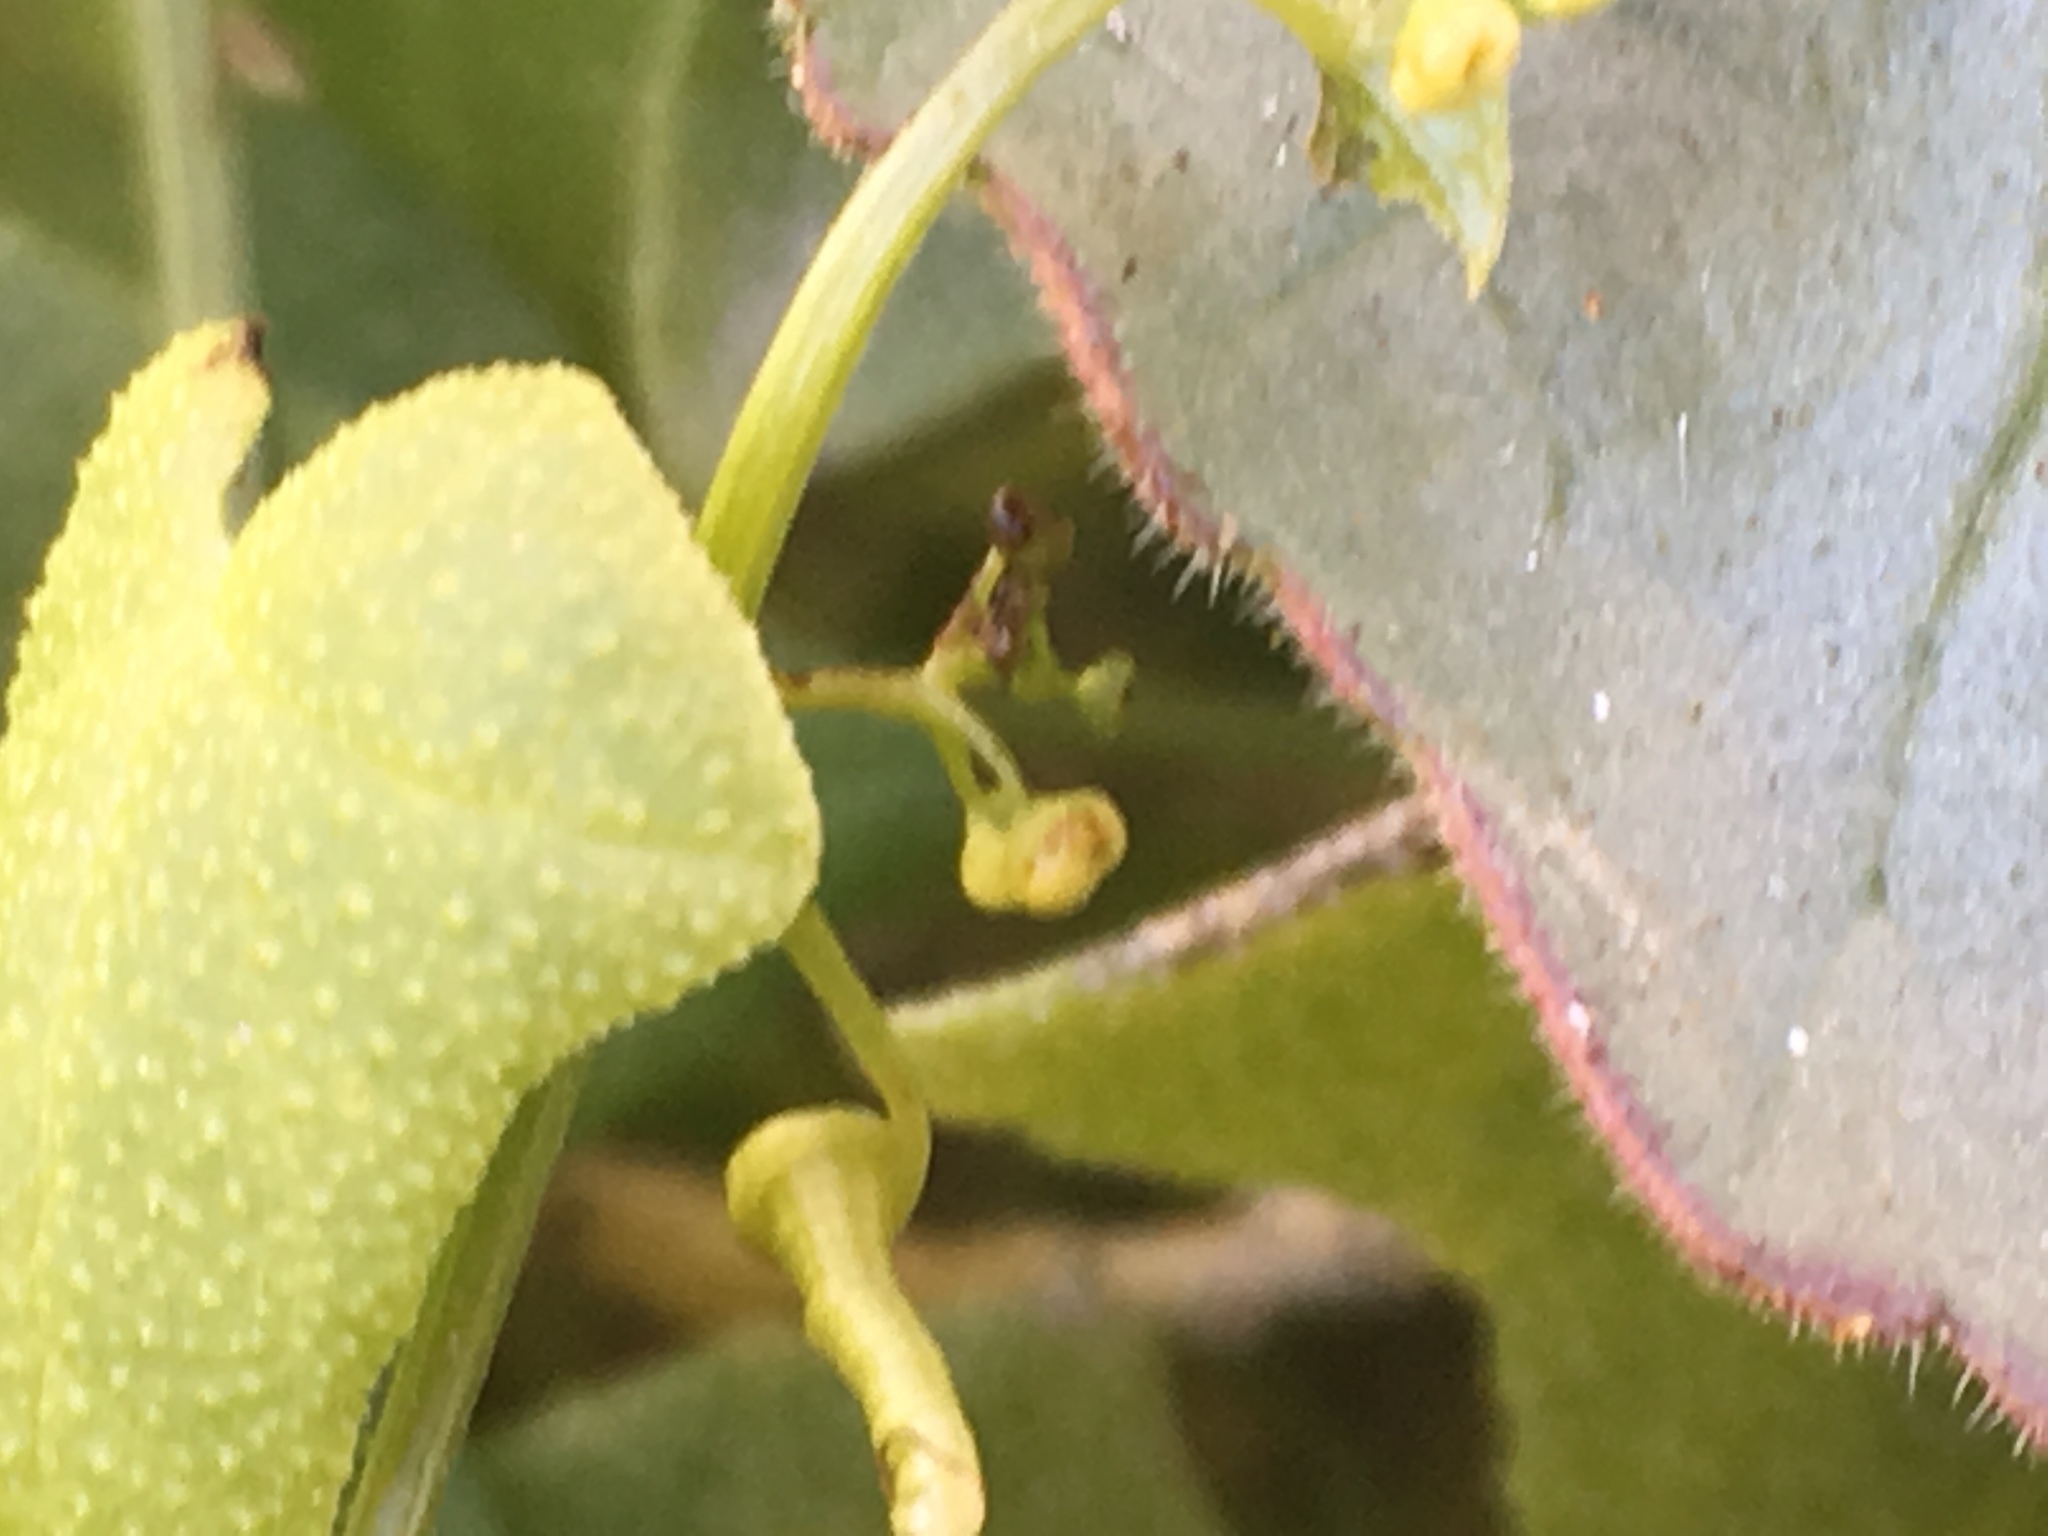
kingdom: Plantae
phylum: Tracheophyta
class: Magnoliopsida
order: Cucurbitales
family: Cucurbitaceae
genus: Echinopepon
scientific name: Echinopepon bigelovii
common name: Desert starvine
